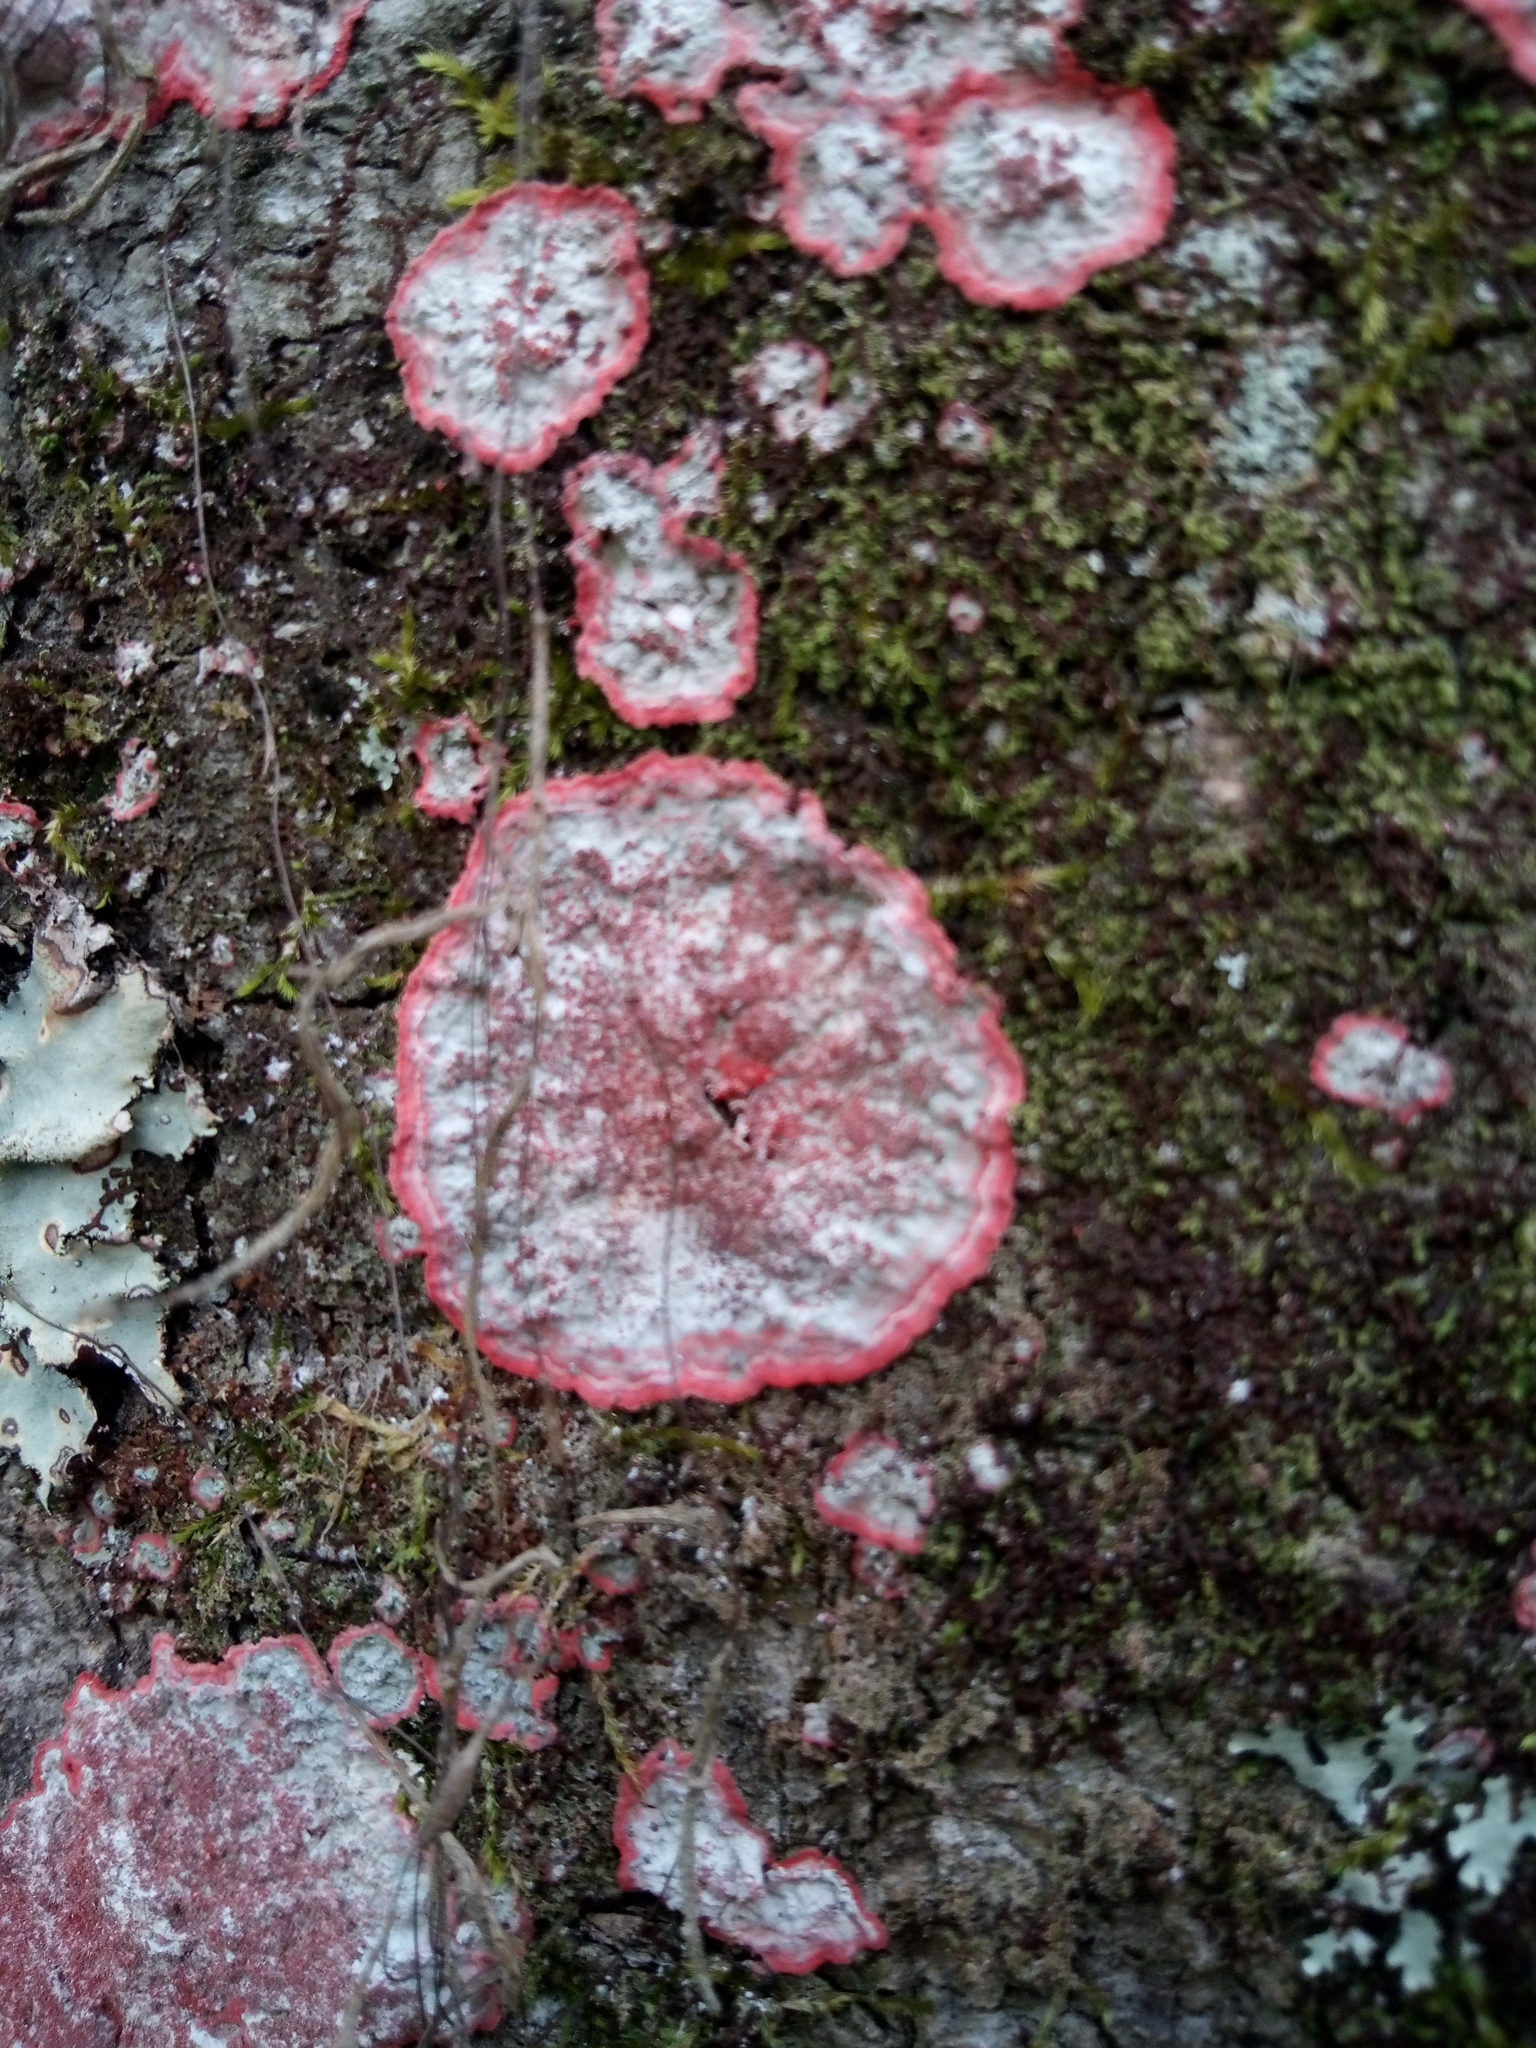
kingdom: Fungi
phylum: Ascomycota
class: Arthoniomycetes
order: Arthoniales
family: Arthoniaceae
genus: Herpothallon
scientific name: Herpothallon rubrocinctum
